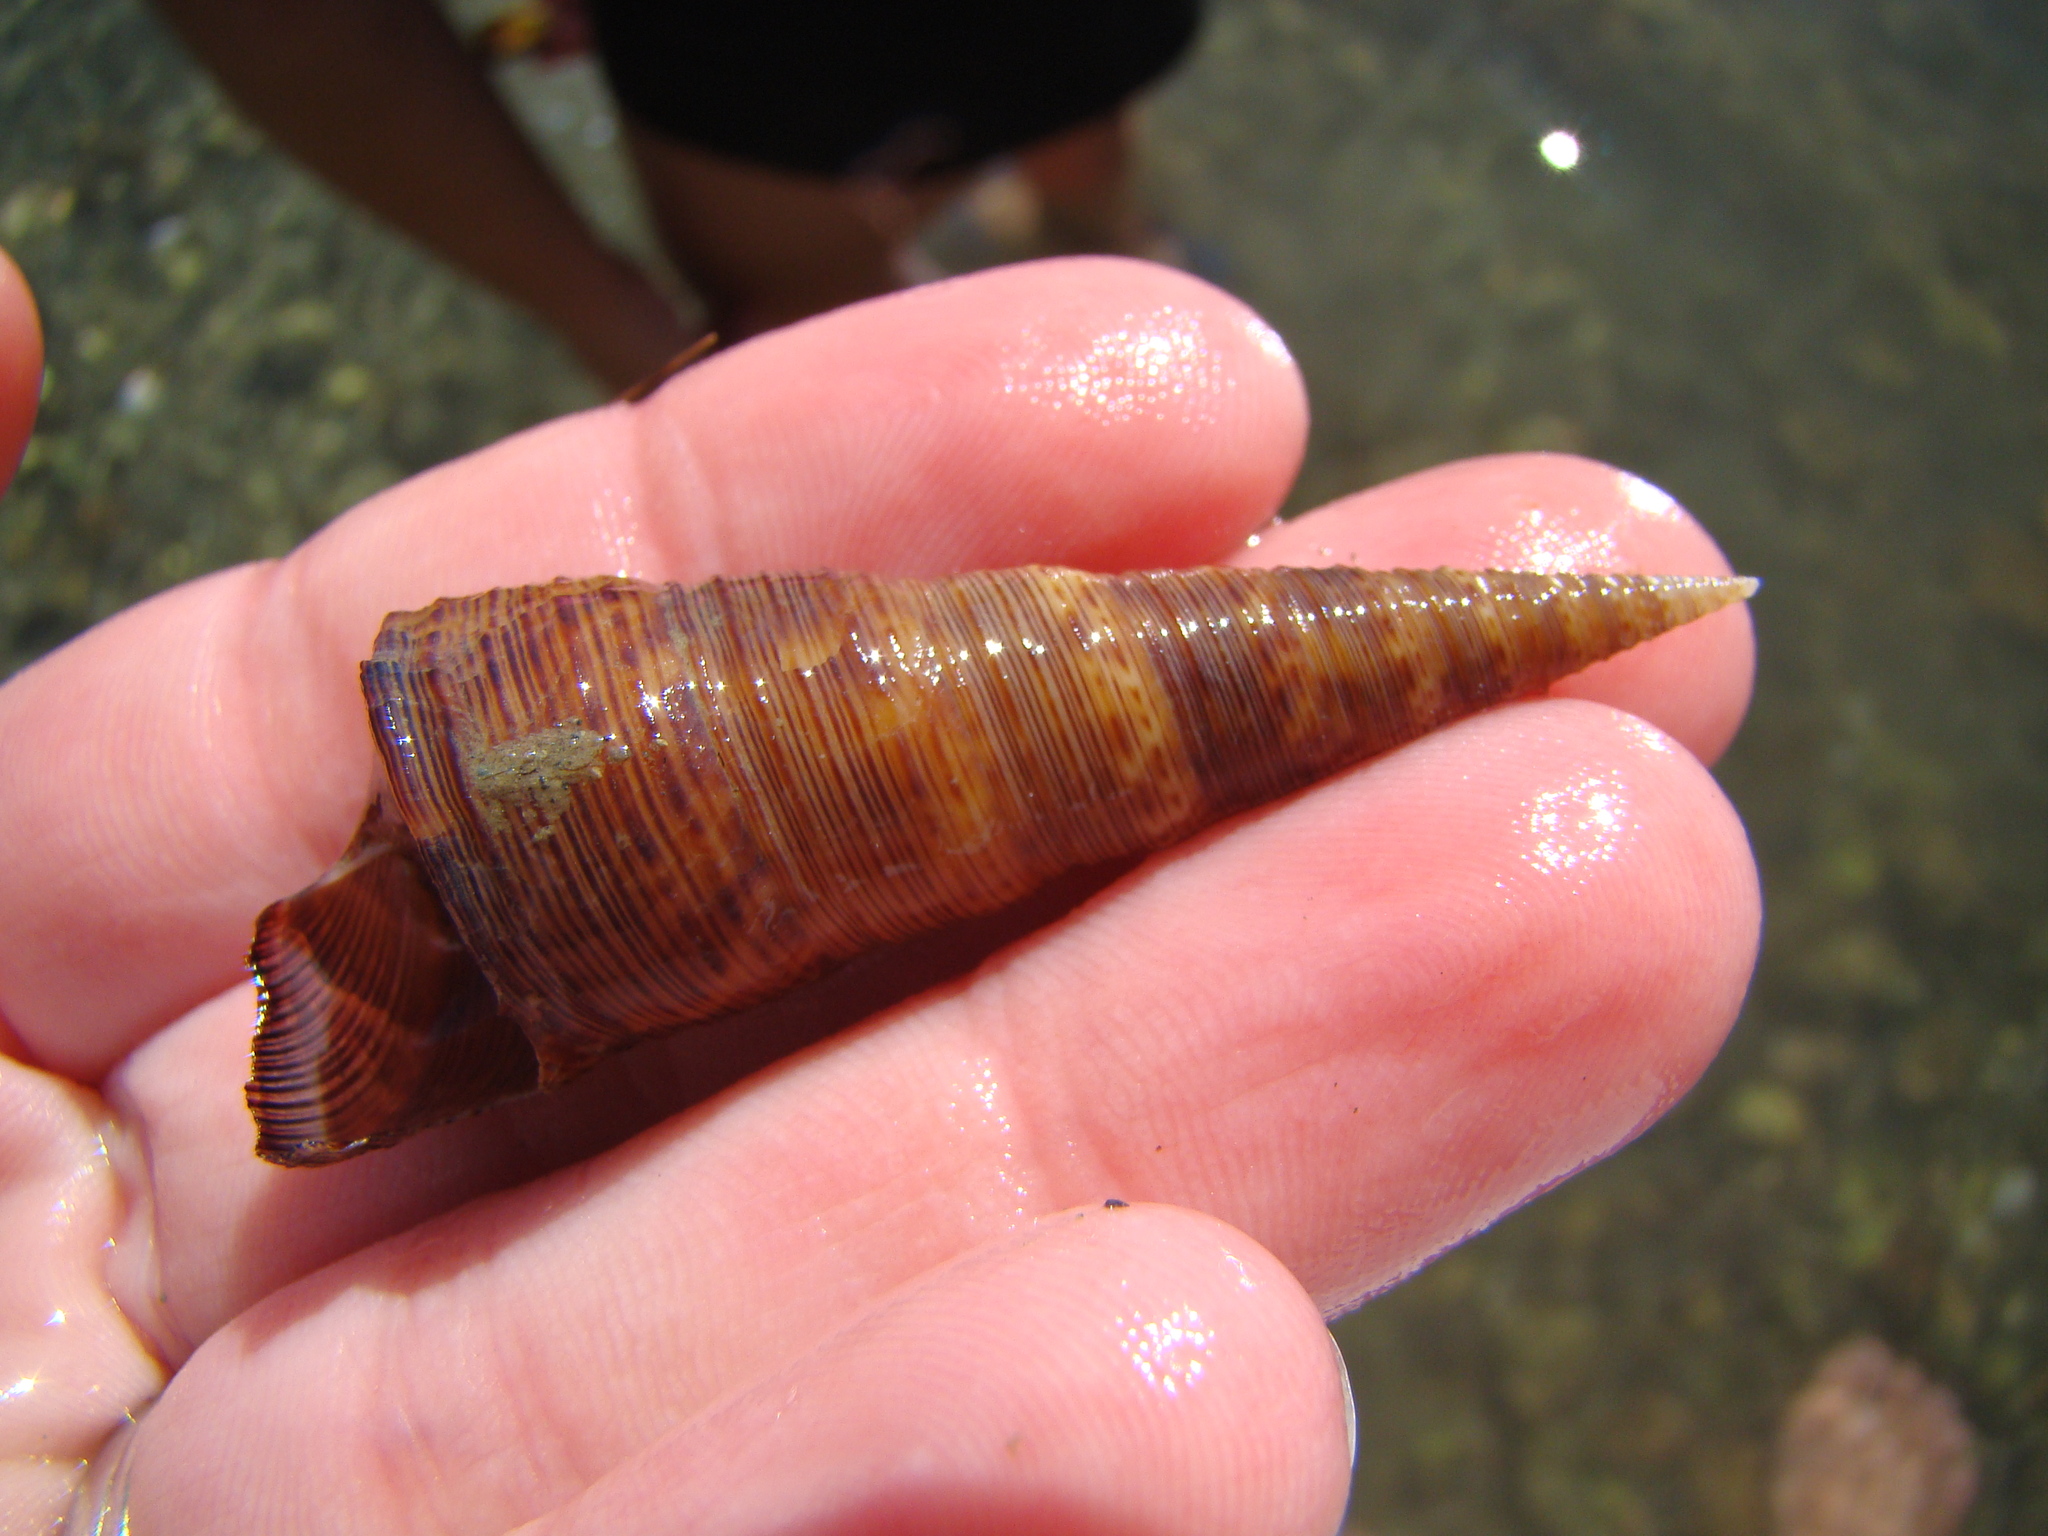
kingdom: Animalia
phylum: Mollusca
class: Gastropoda
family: Turritellidae
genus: Maoricolpus
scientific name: Maoricolpus roseus
